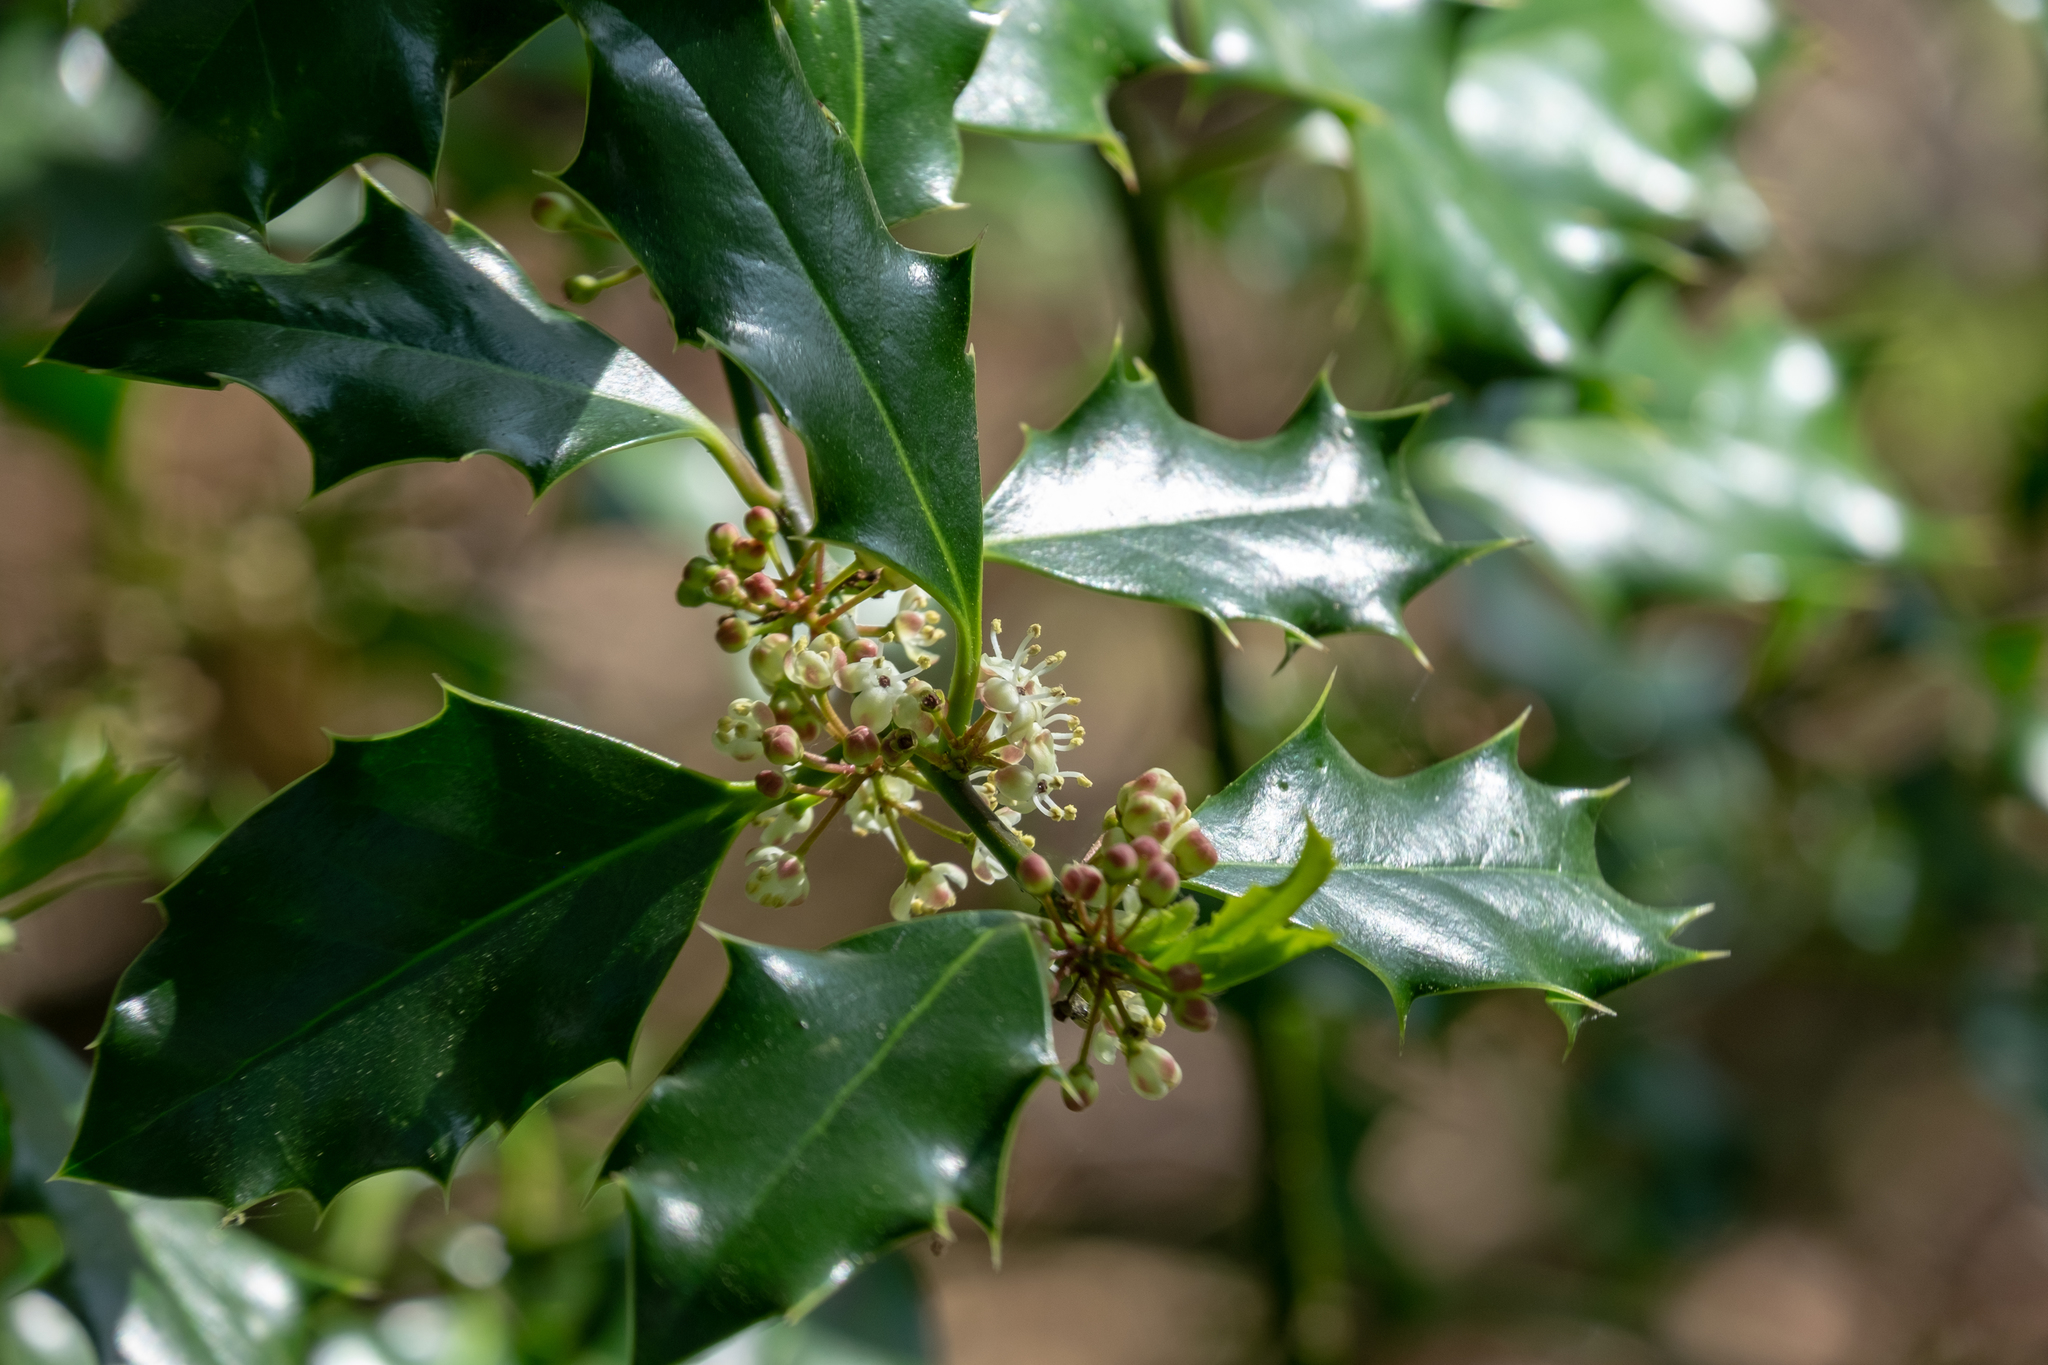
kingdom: Plantae
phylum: Tracheophyta
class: Magnoliopsida
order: Aquifoliales
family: Aquifoliaceae
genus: Ilex
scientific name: Ilex aquifolium
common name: English holly
